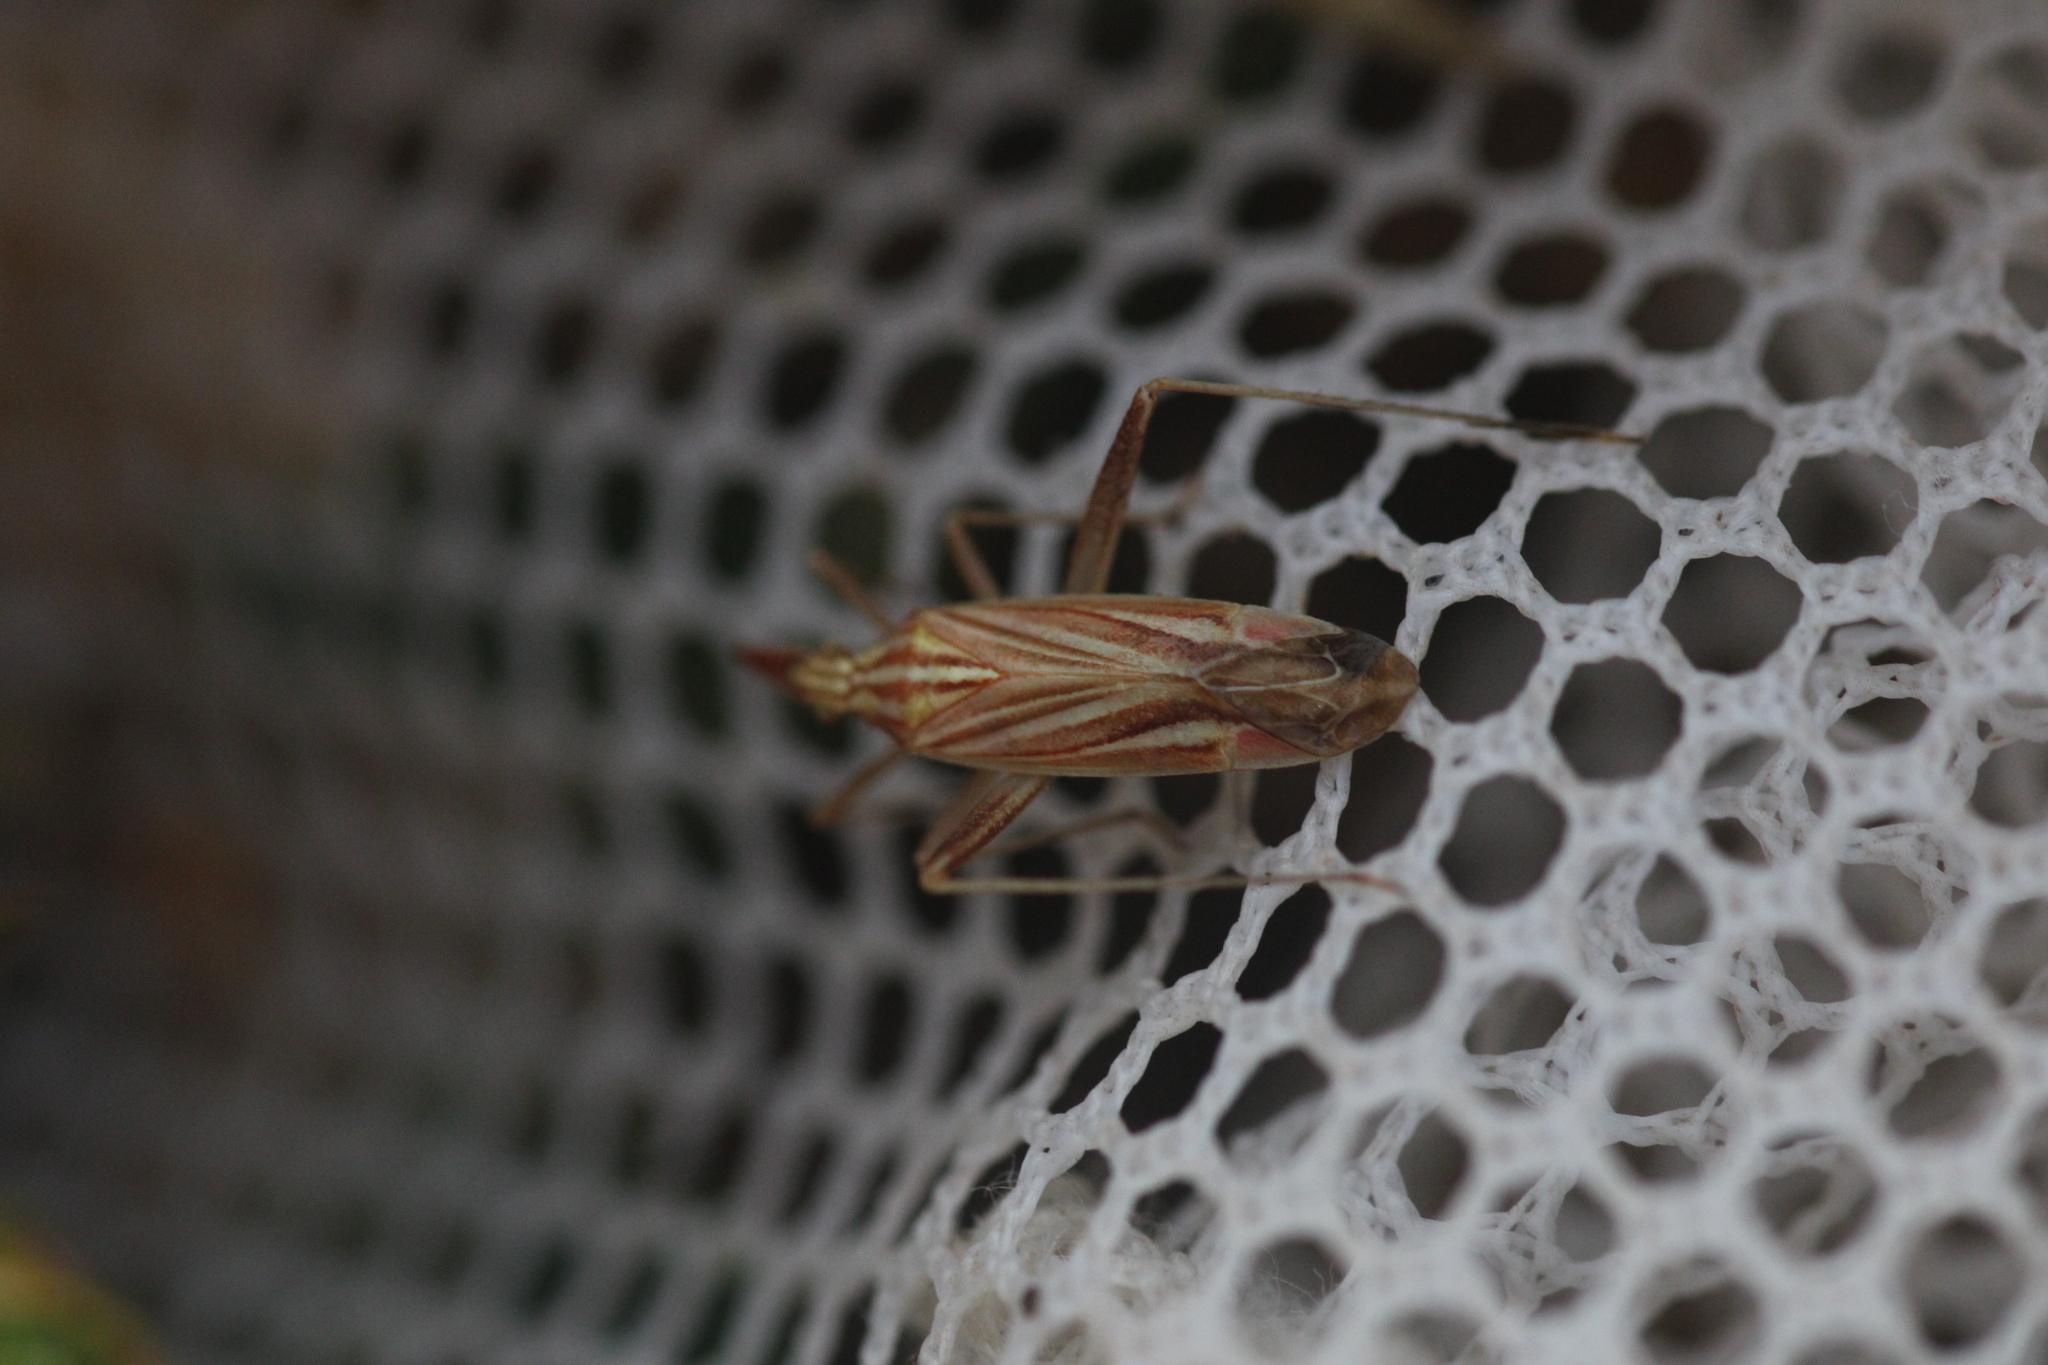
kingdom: Animalia
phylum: Arthropoda
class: Insecta
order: Hemiptera
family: Miridae
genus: Miridius
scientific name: Miridius quadrivirgatus
